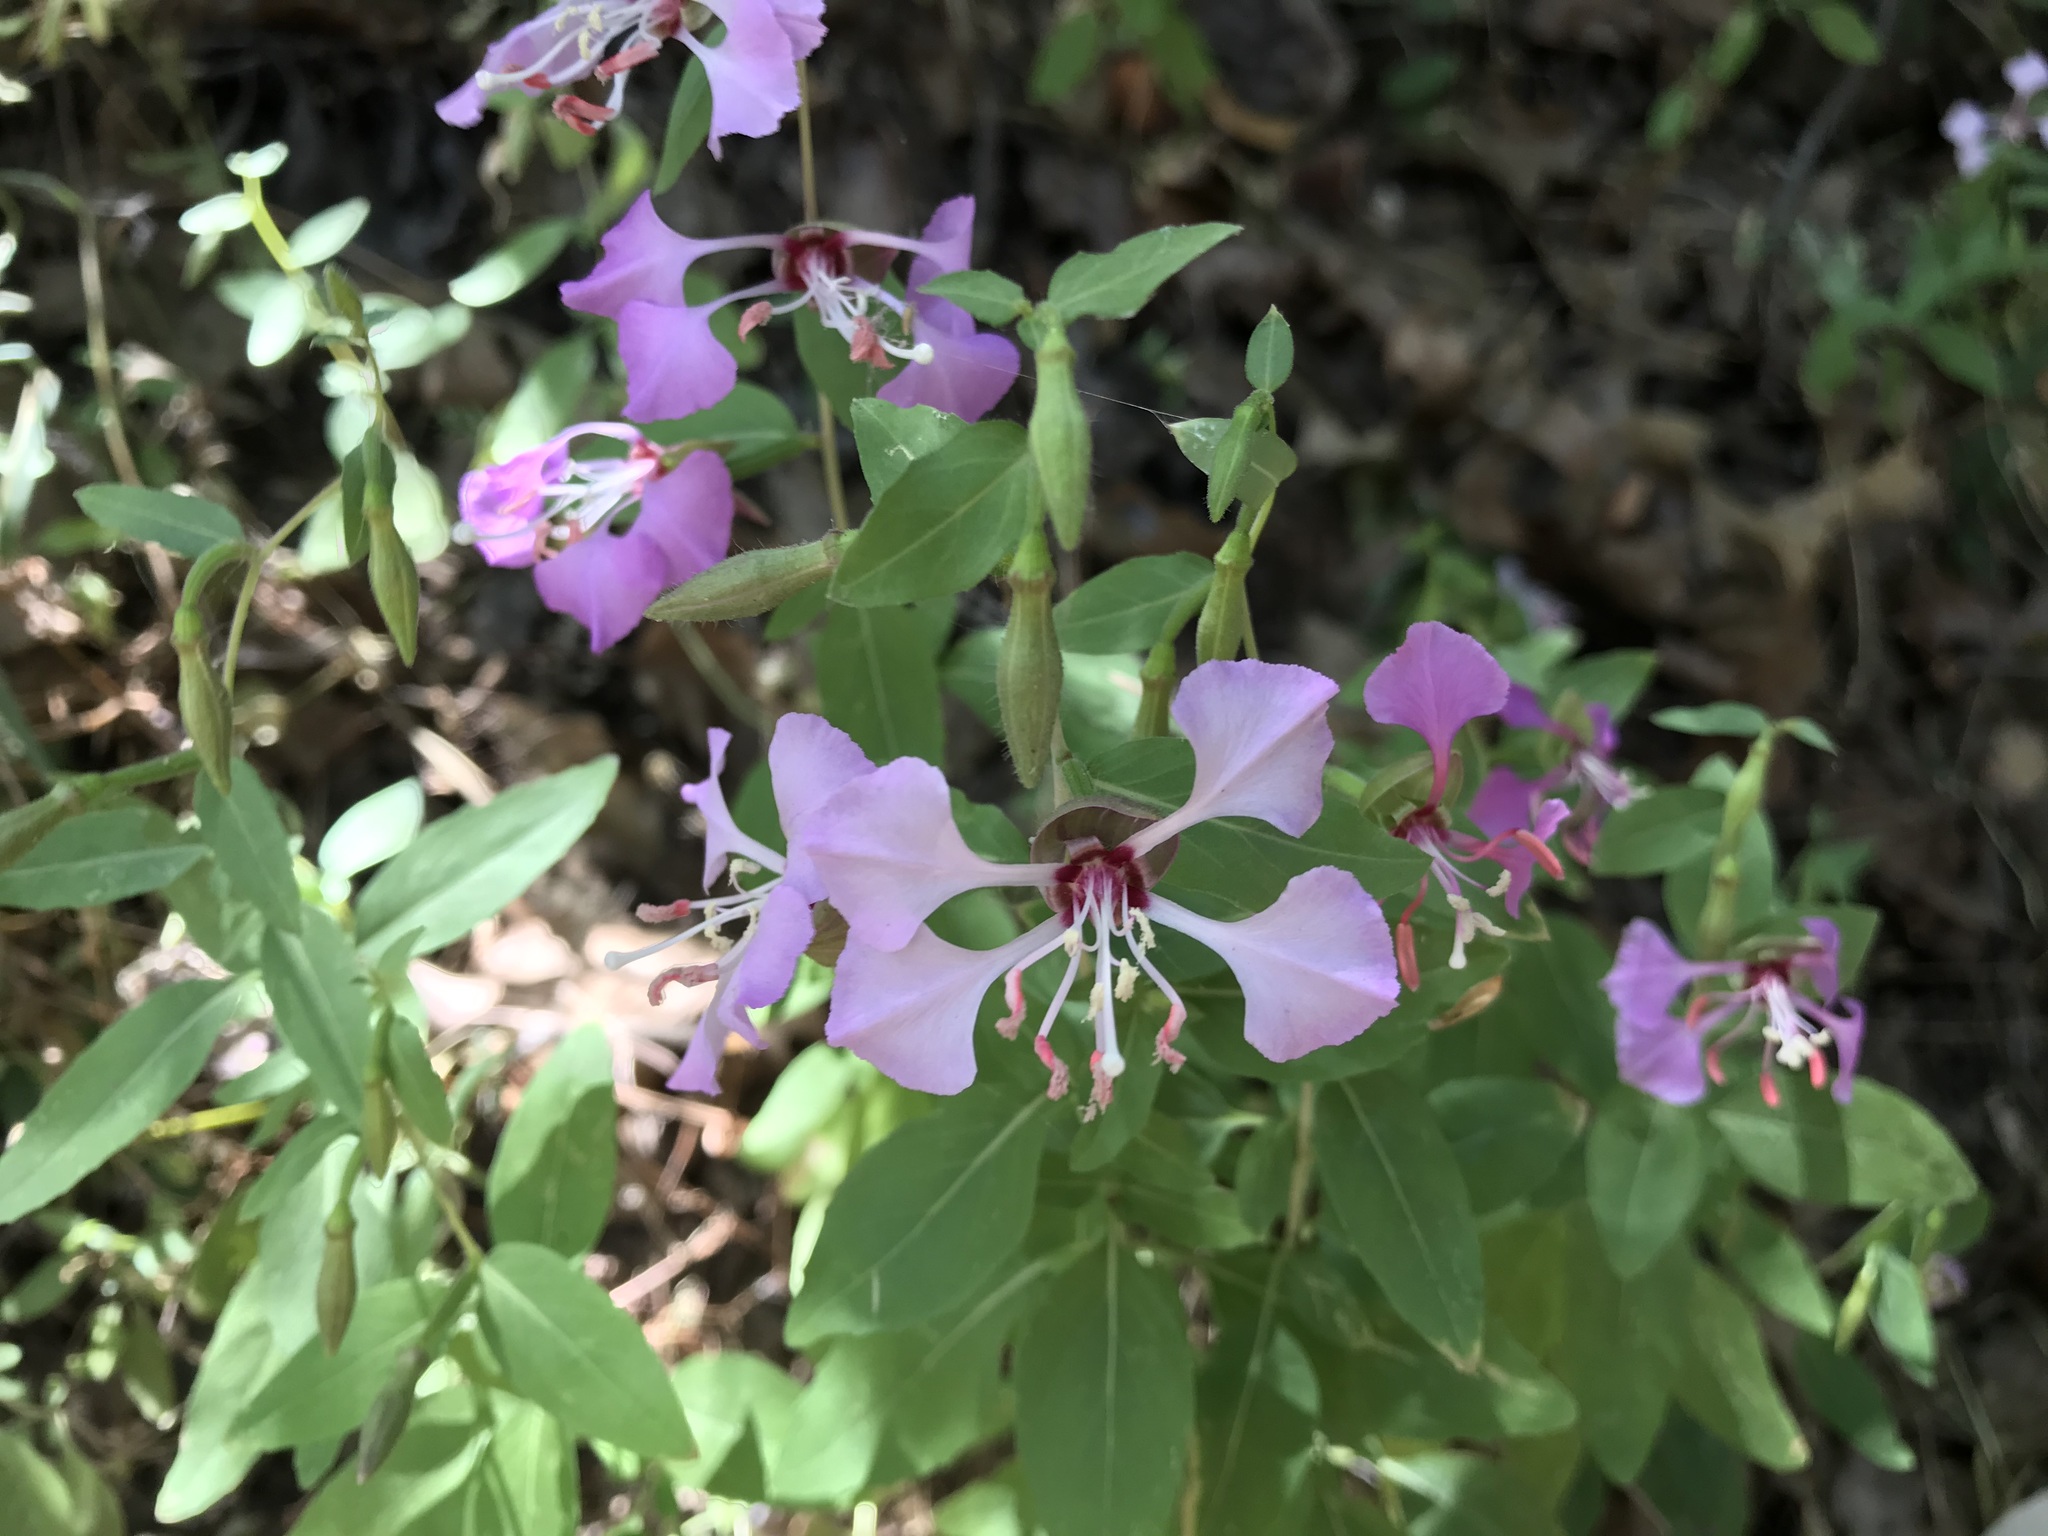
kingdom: Plantae
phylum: Tracheophyta
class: Magnoliopsida
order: Myrtales
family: Onagraceae
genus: Clarkia
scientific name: Clarkia unguiculata
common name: Clarkia
